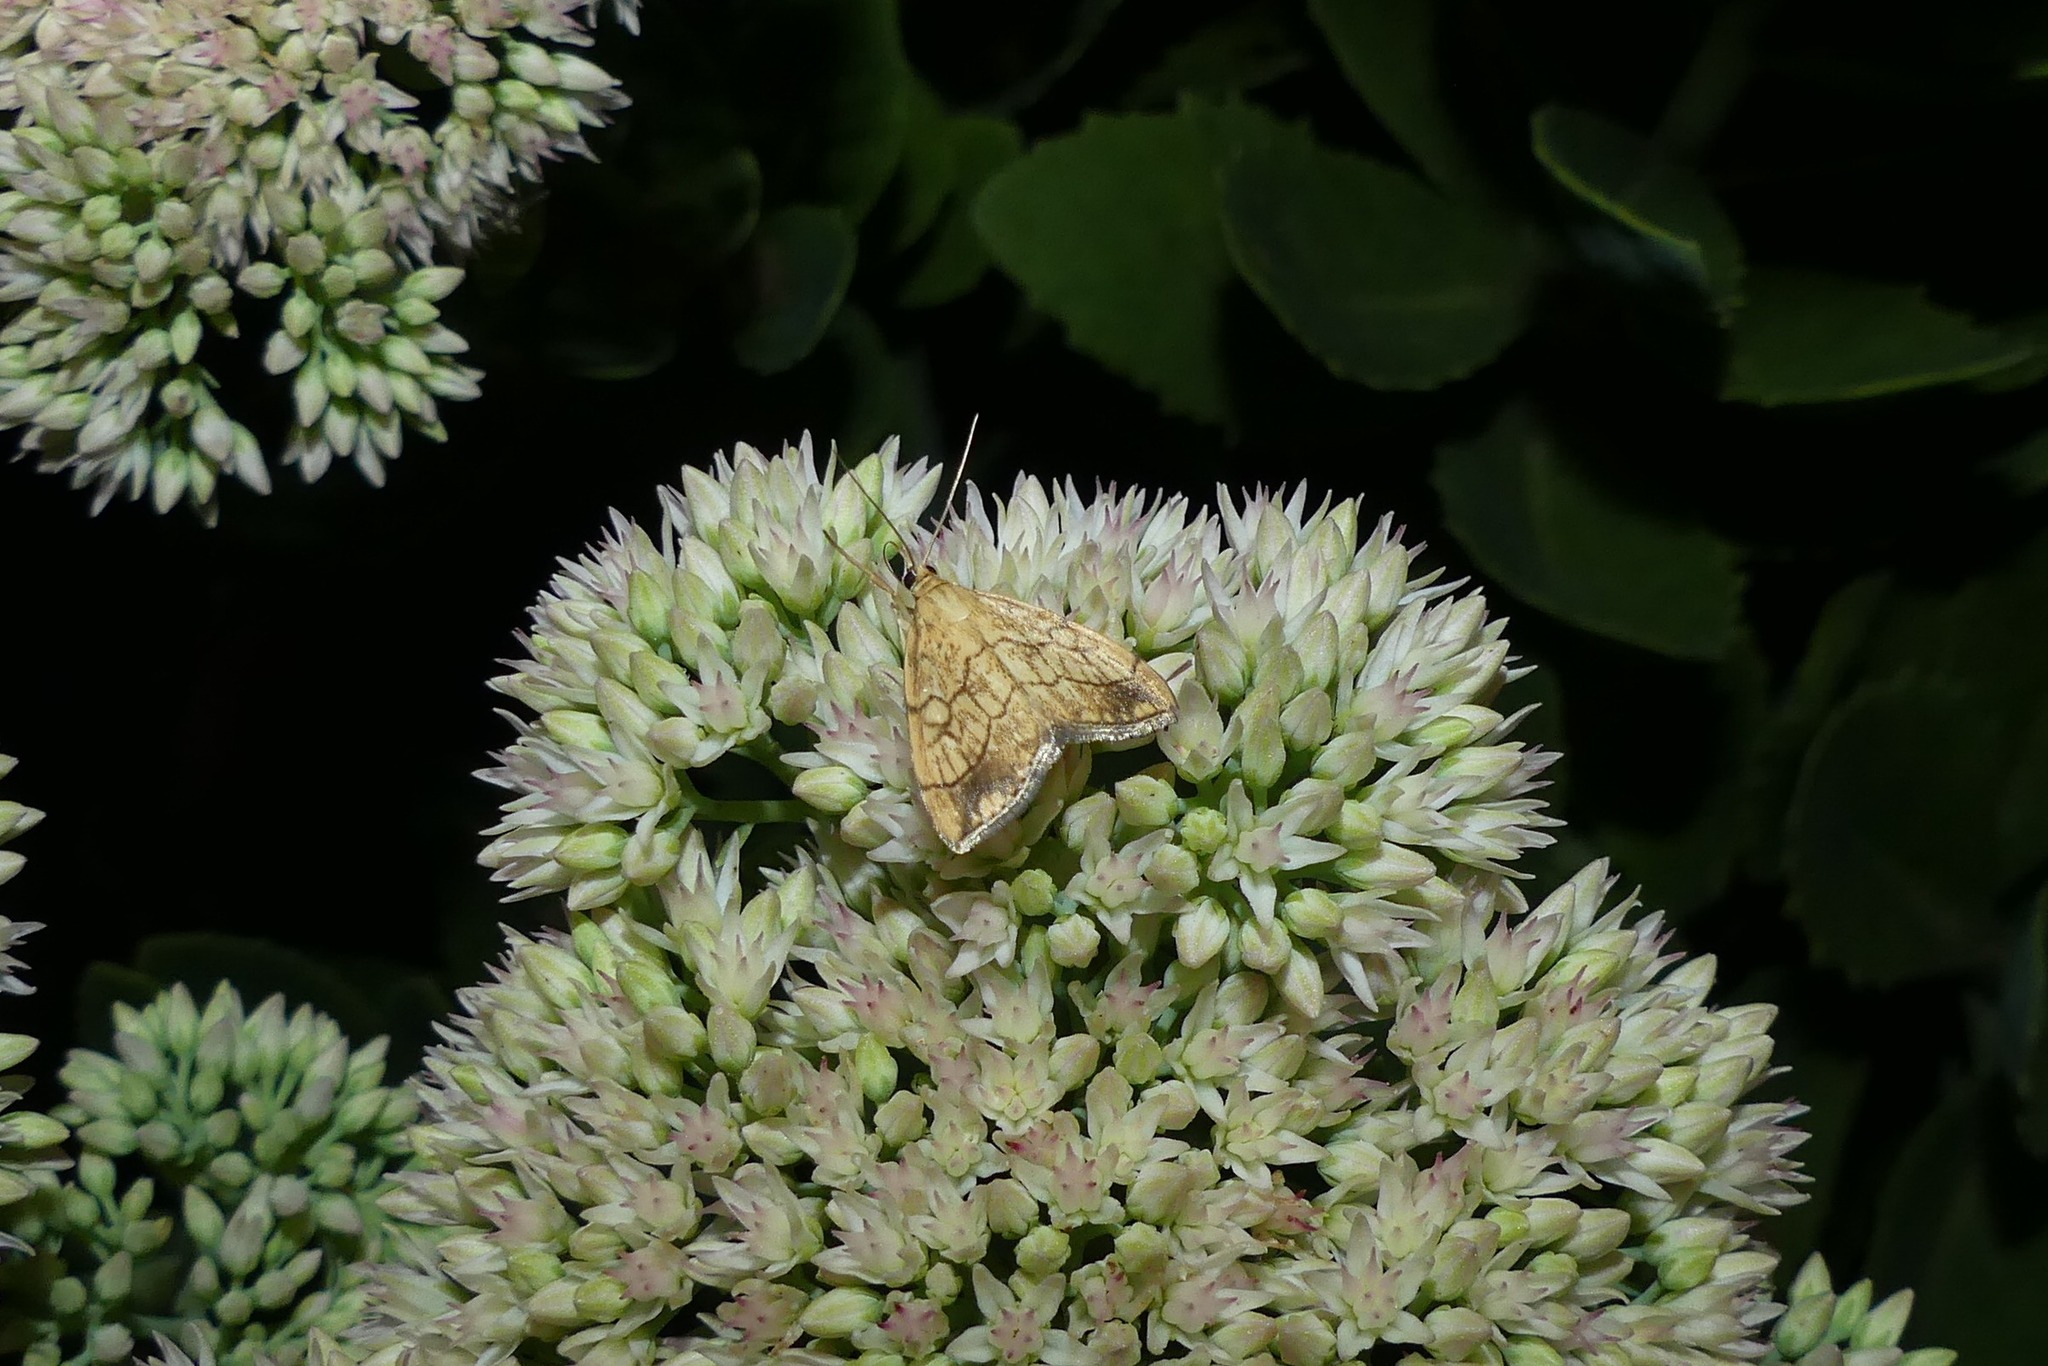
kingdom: Animalia
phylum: Arthropoda
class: Insecta
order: Lepidoptera
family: Crambidae
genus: Evergestis
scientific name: Evergestis pallidata
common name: Chequered pearl
